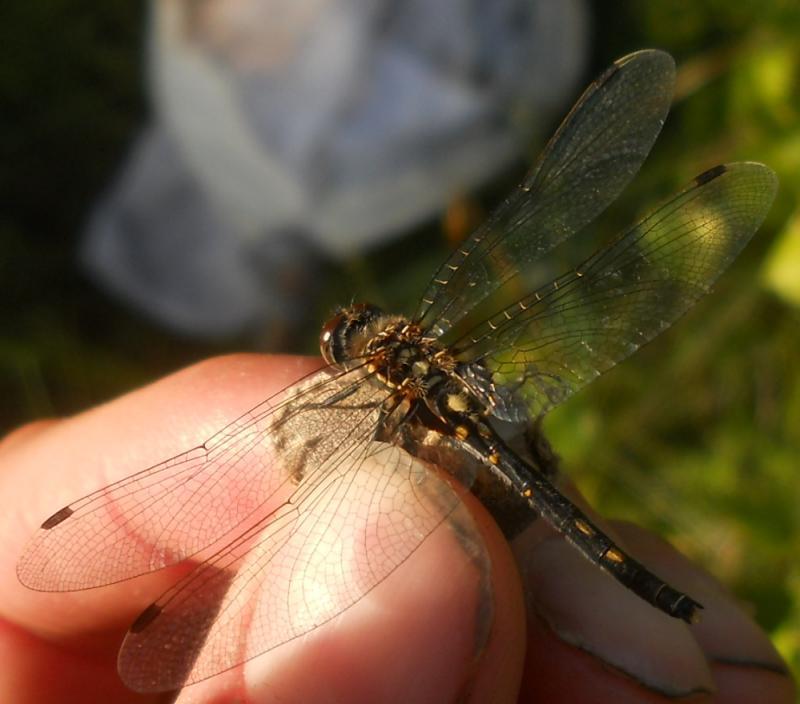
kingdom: Animalia
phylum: Arthropoda
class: Insecta
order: Odonata
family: Libellulidae
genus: Leucorrhinia
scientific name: Leucorrhinia dubia
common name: White-faced darter
